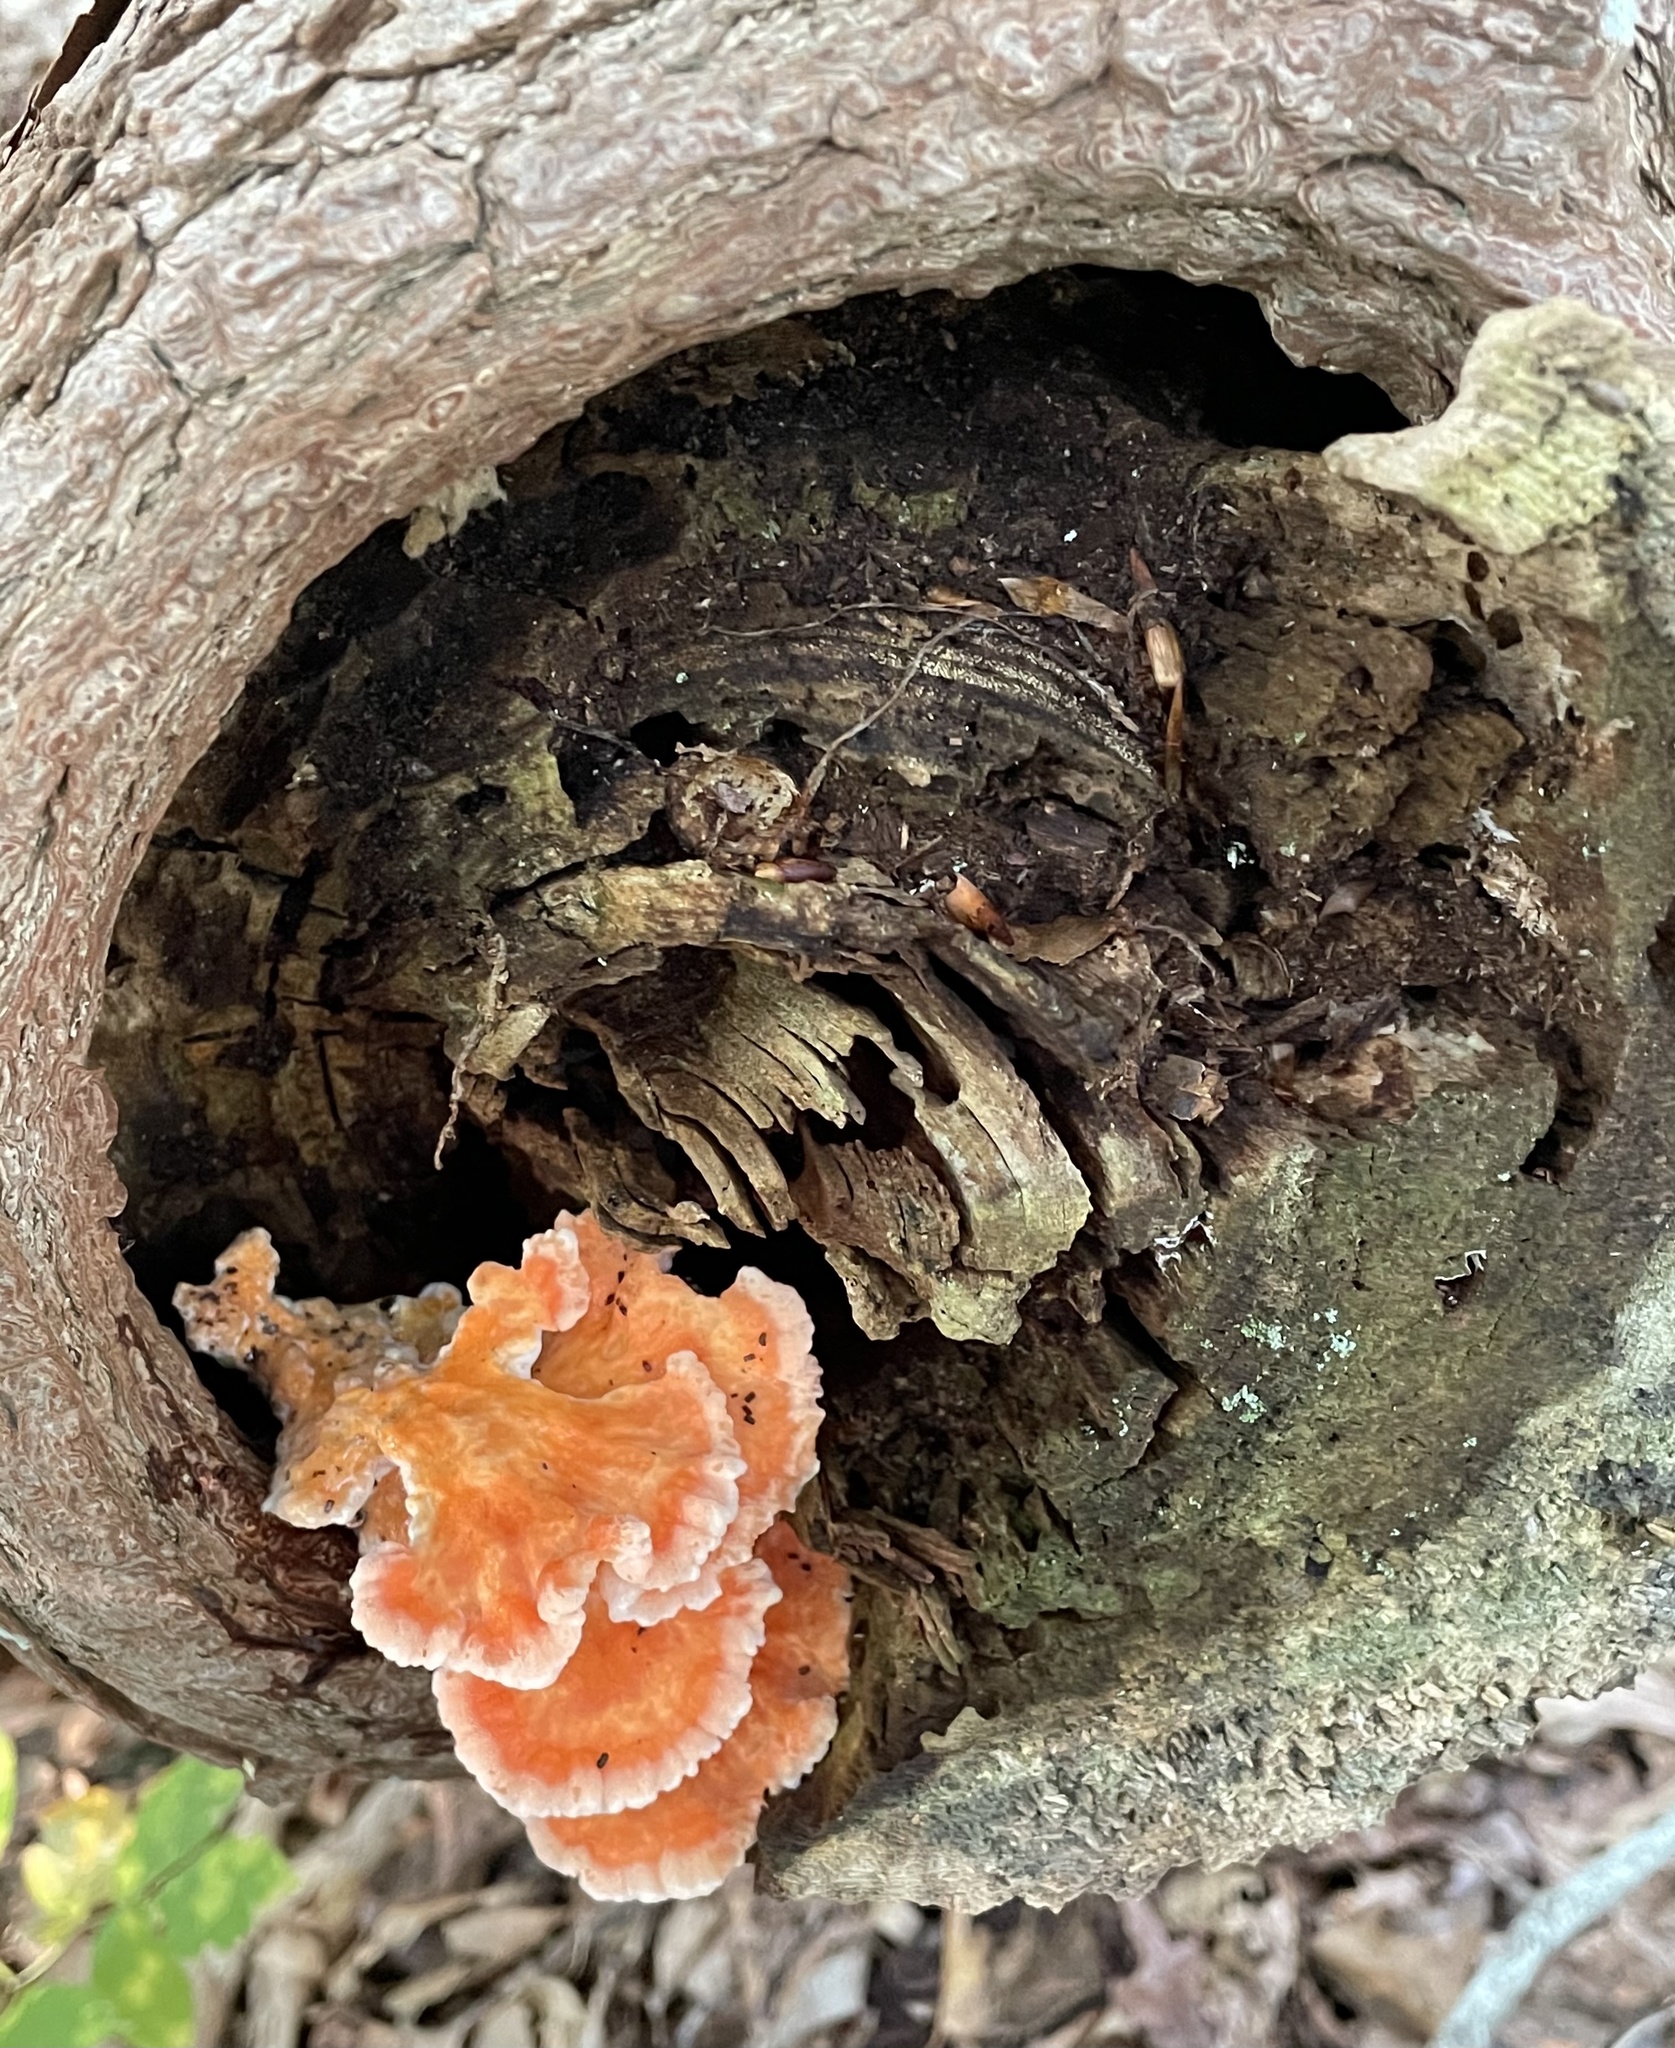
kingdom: Fungi
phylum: Basidiomycota
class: Agaricomycetes
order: Polyporales
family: Laetiporaceae
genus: Laetiporus
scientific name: Laetiporus sulphureus
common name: Chicken of the woods
